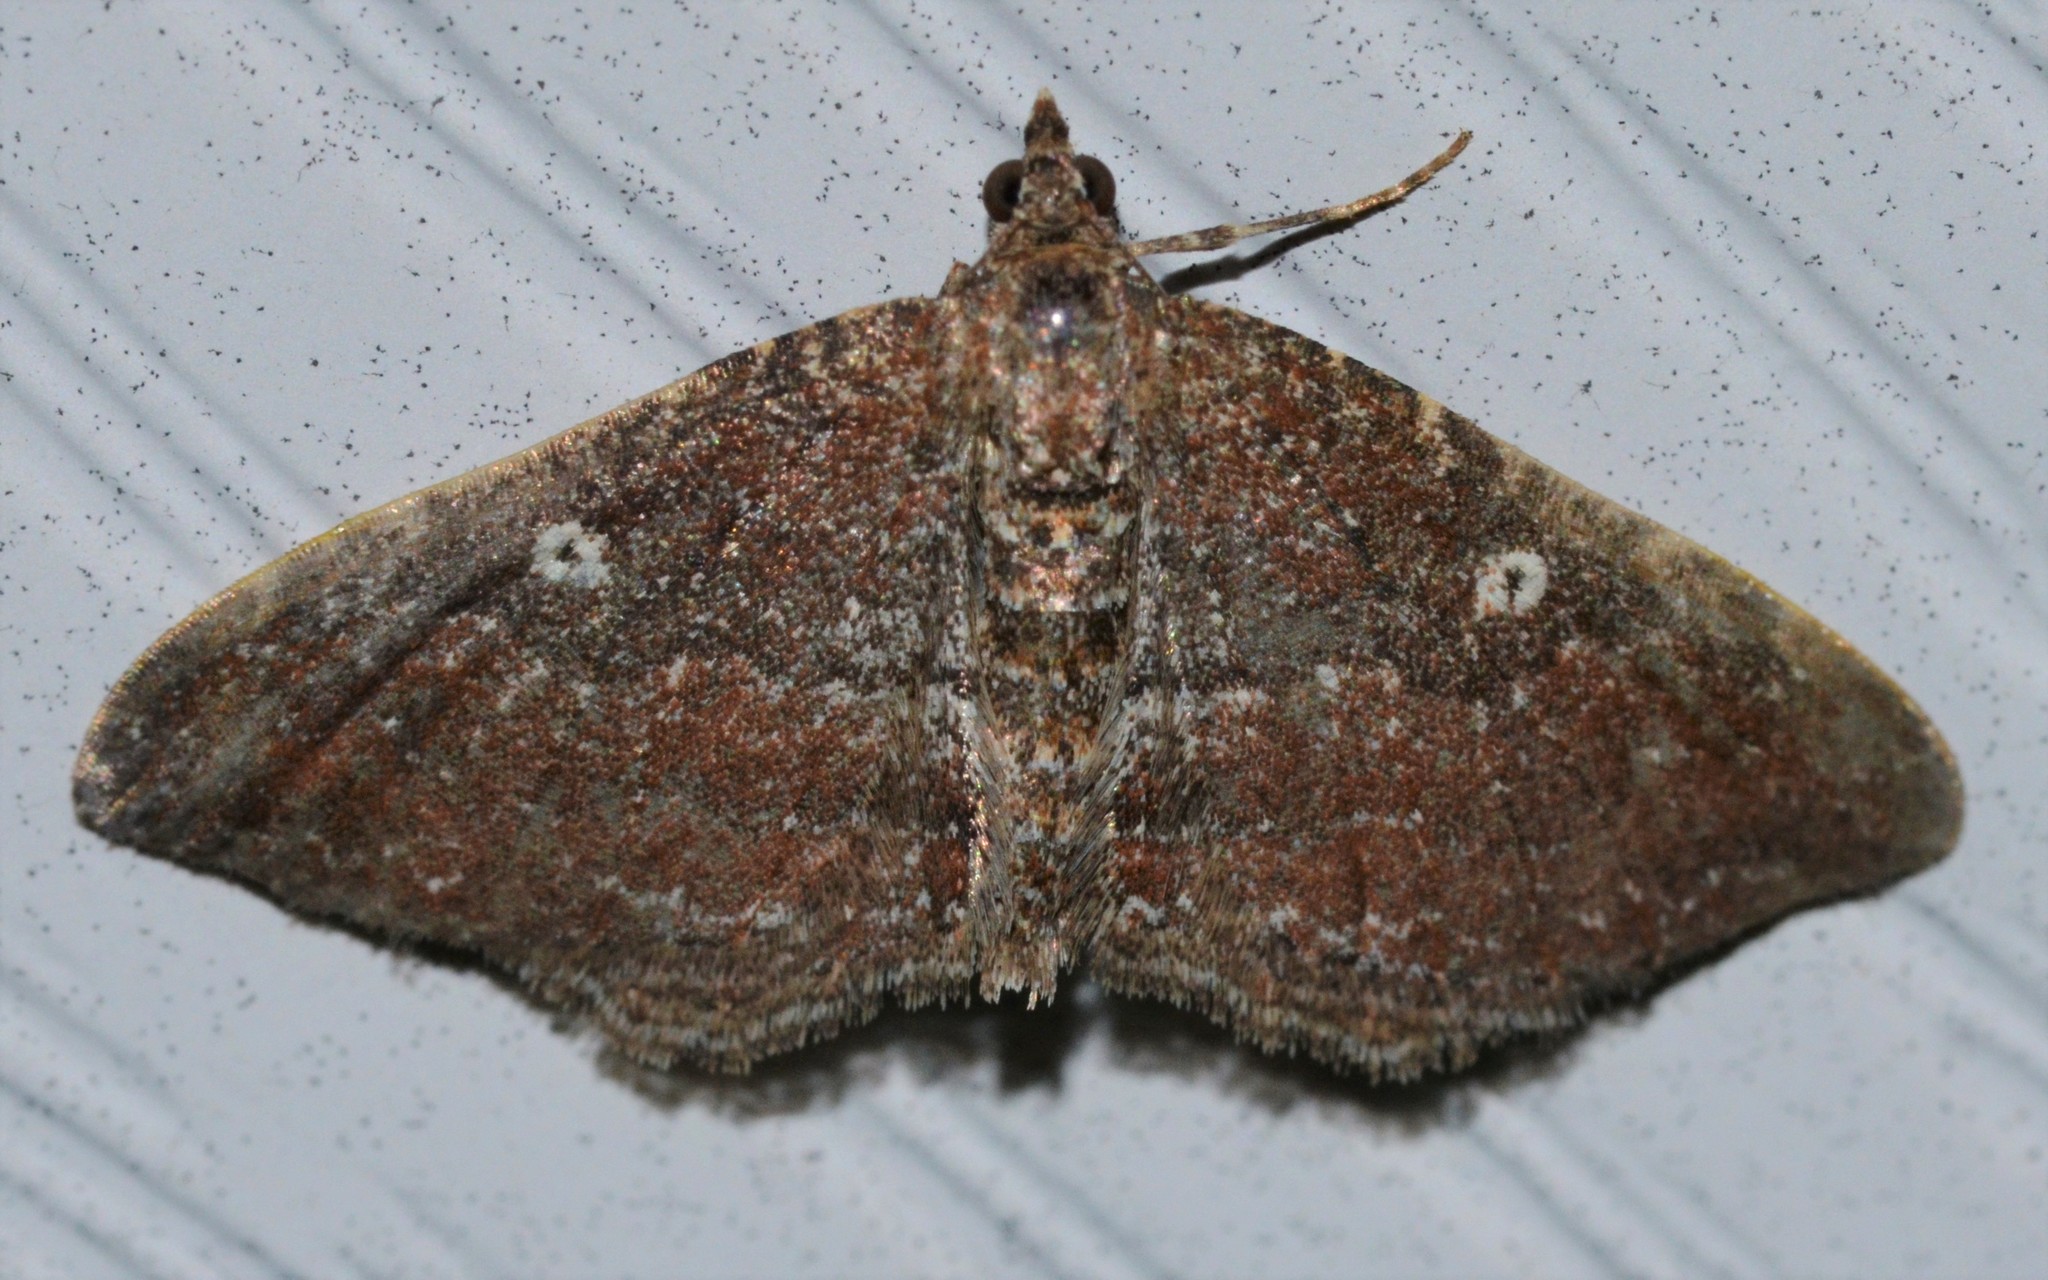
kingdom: Animalia
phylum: Arthropoda
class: Insecta
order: Lepidoptera
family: Geometridae
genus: Orthonama
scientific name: Orthonama obstipata
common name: The gem
